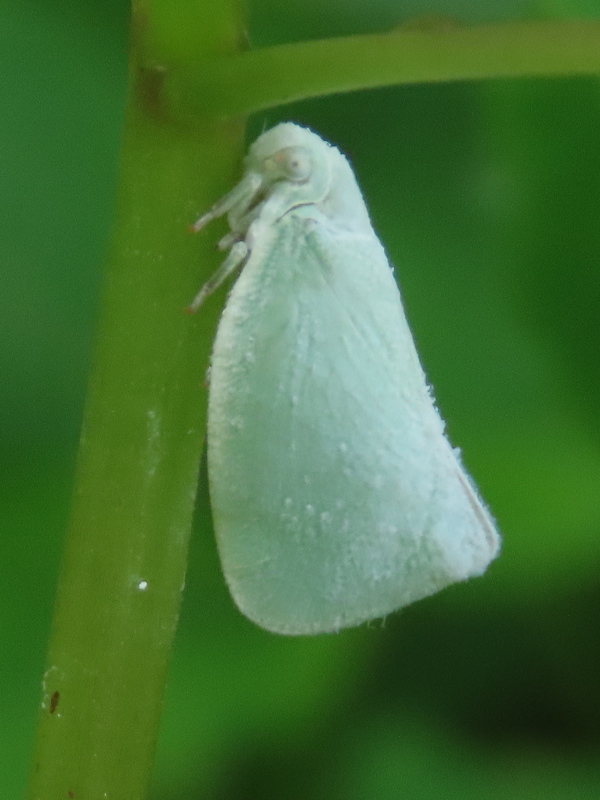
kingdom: Animalia
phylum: Arthropoda
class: Insecta
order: Hemiptera
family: Flatidae
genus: Flatormenis
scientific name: Flatormenis proxima
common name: Northern flatid planthopper
